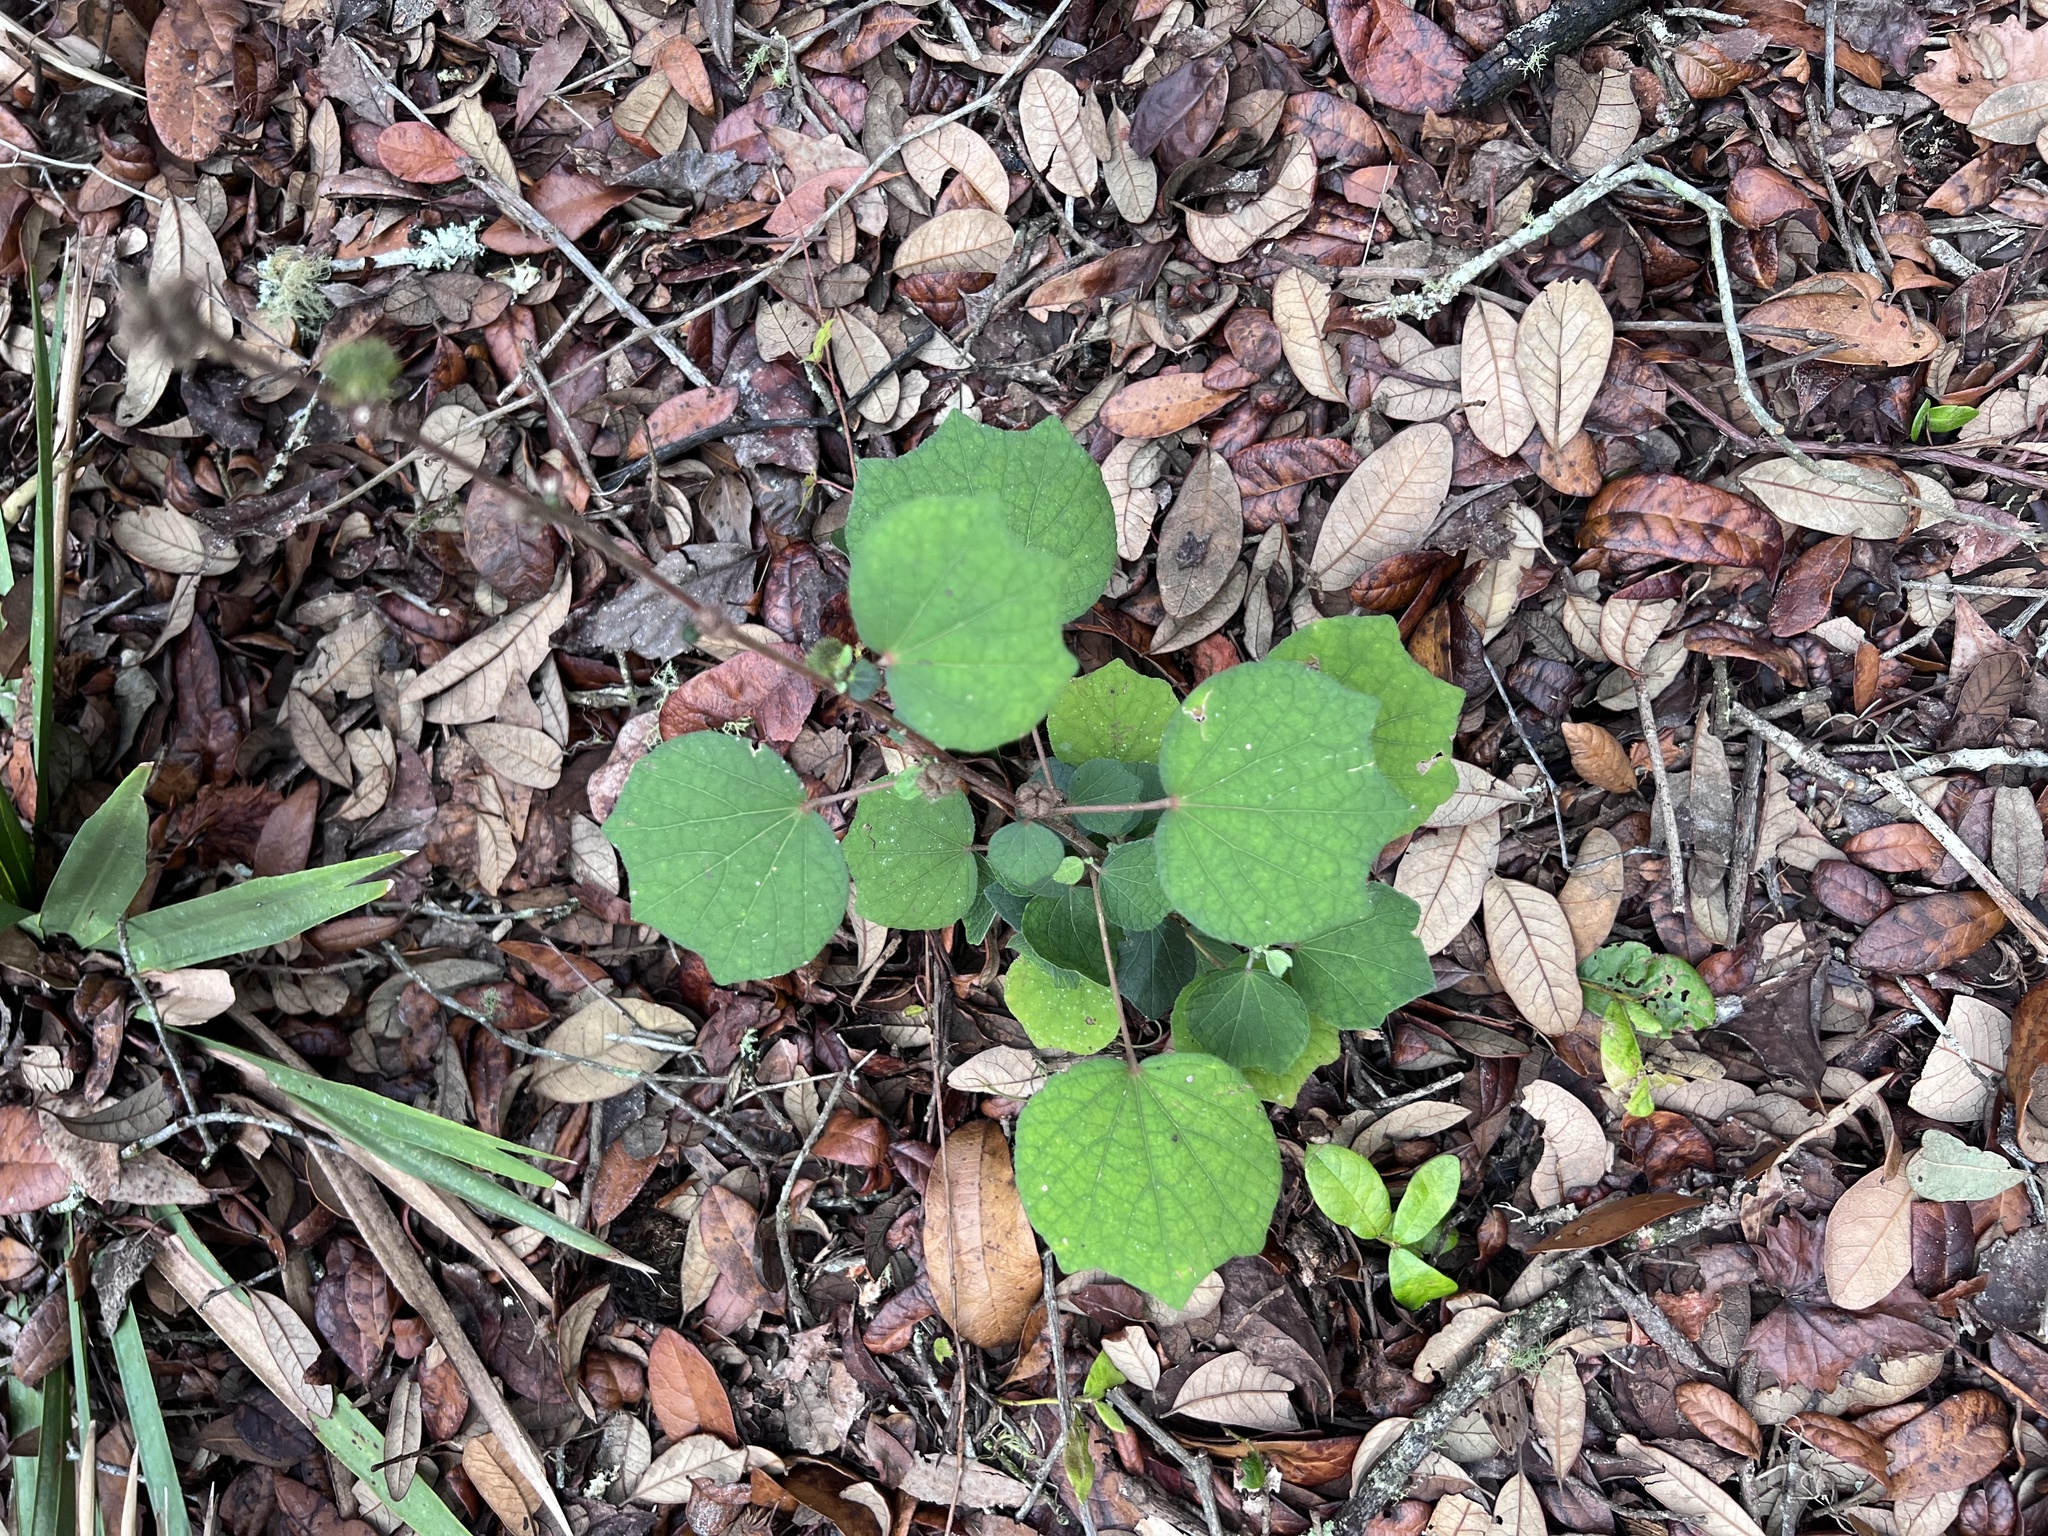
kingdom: Plantae
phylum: Tracheophyta
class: Magnoliopsida
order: Malvales
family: Malvaceae
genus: Urena
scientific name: Urena lobata
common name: Caesarweed
